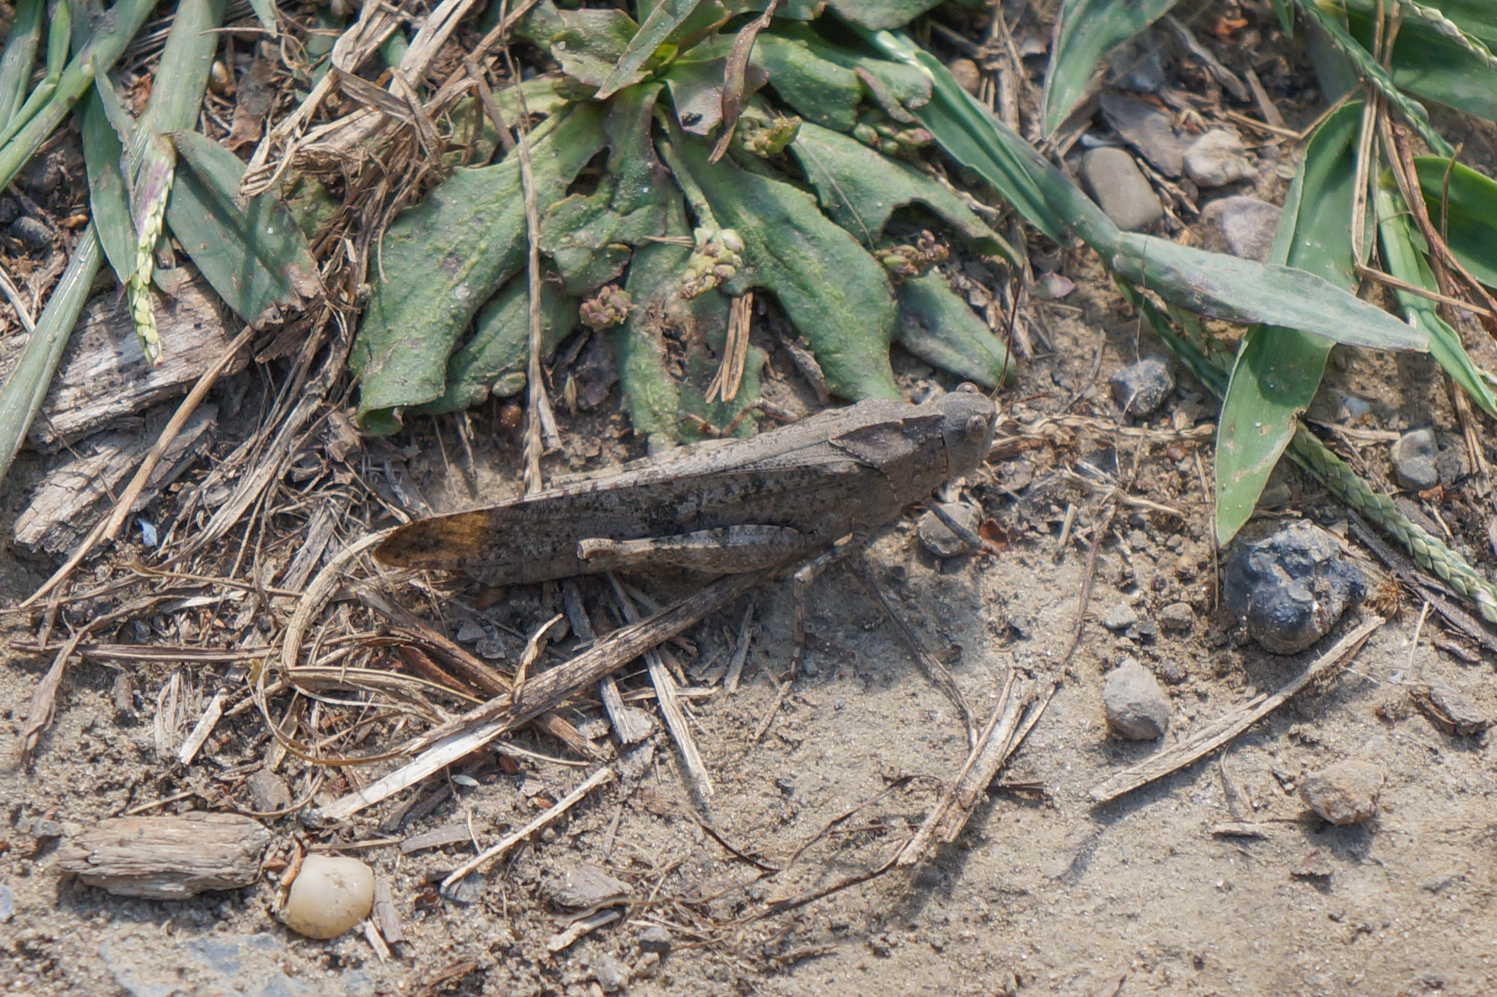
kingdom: Animalia
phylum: Arthropoda
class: Insecta
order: Orthoptera
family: Acrididae
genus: Dissosteira
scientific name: Dissosteira carolina
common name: Carolina grasshopper
